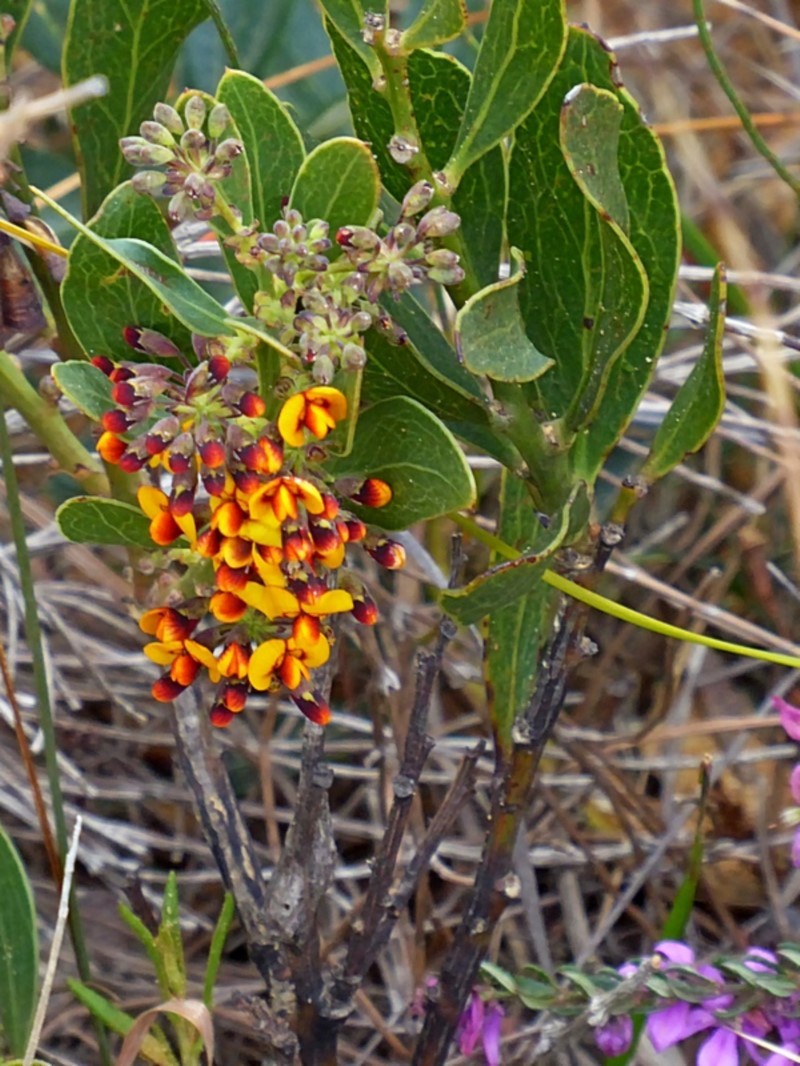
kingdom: Plantae
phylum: Tracheophyta
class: Magnoliopsida
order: Fabales
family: Fabaceae
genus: Daviesia
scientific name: Daviesia corymbosa
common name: Narrow-leaf bitter-pea
